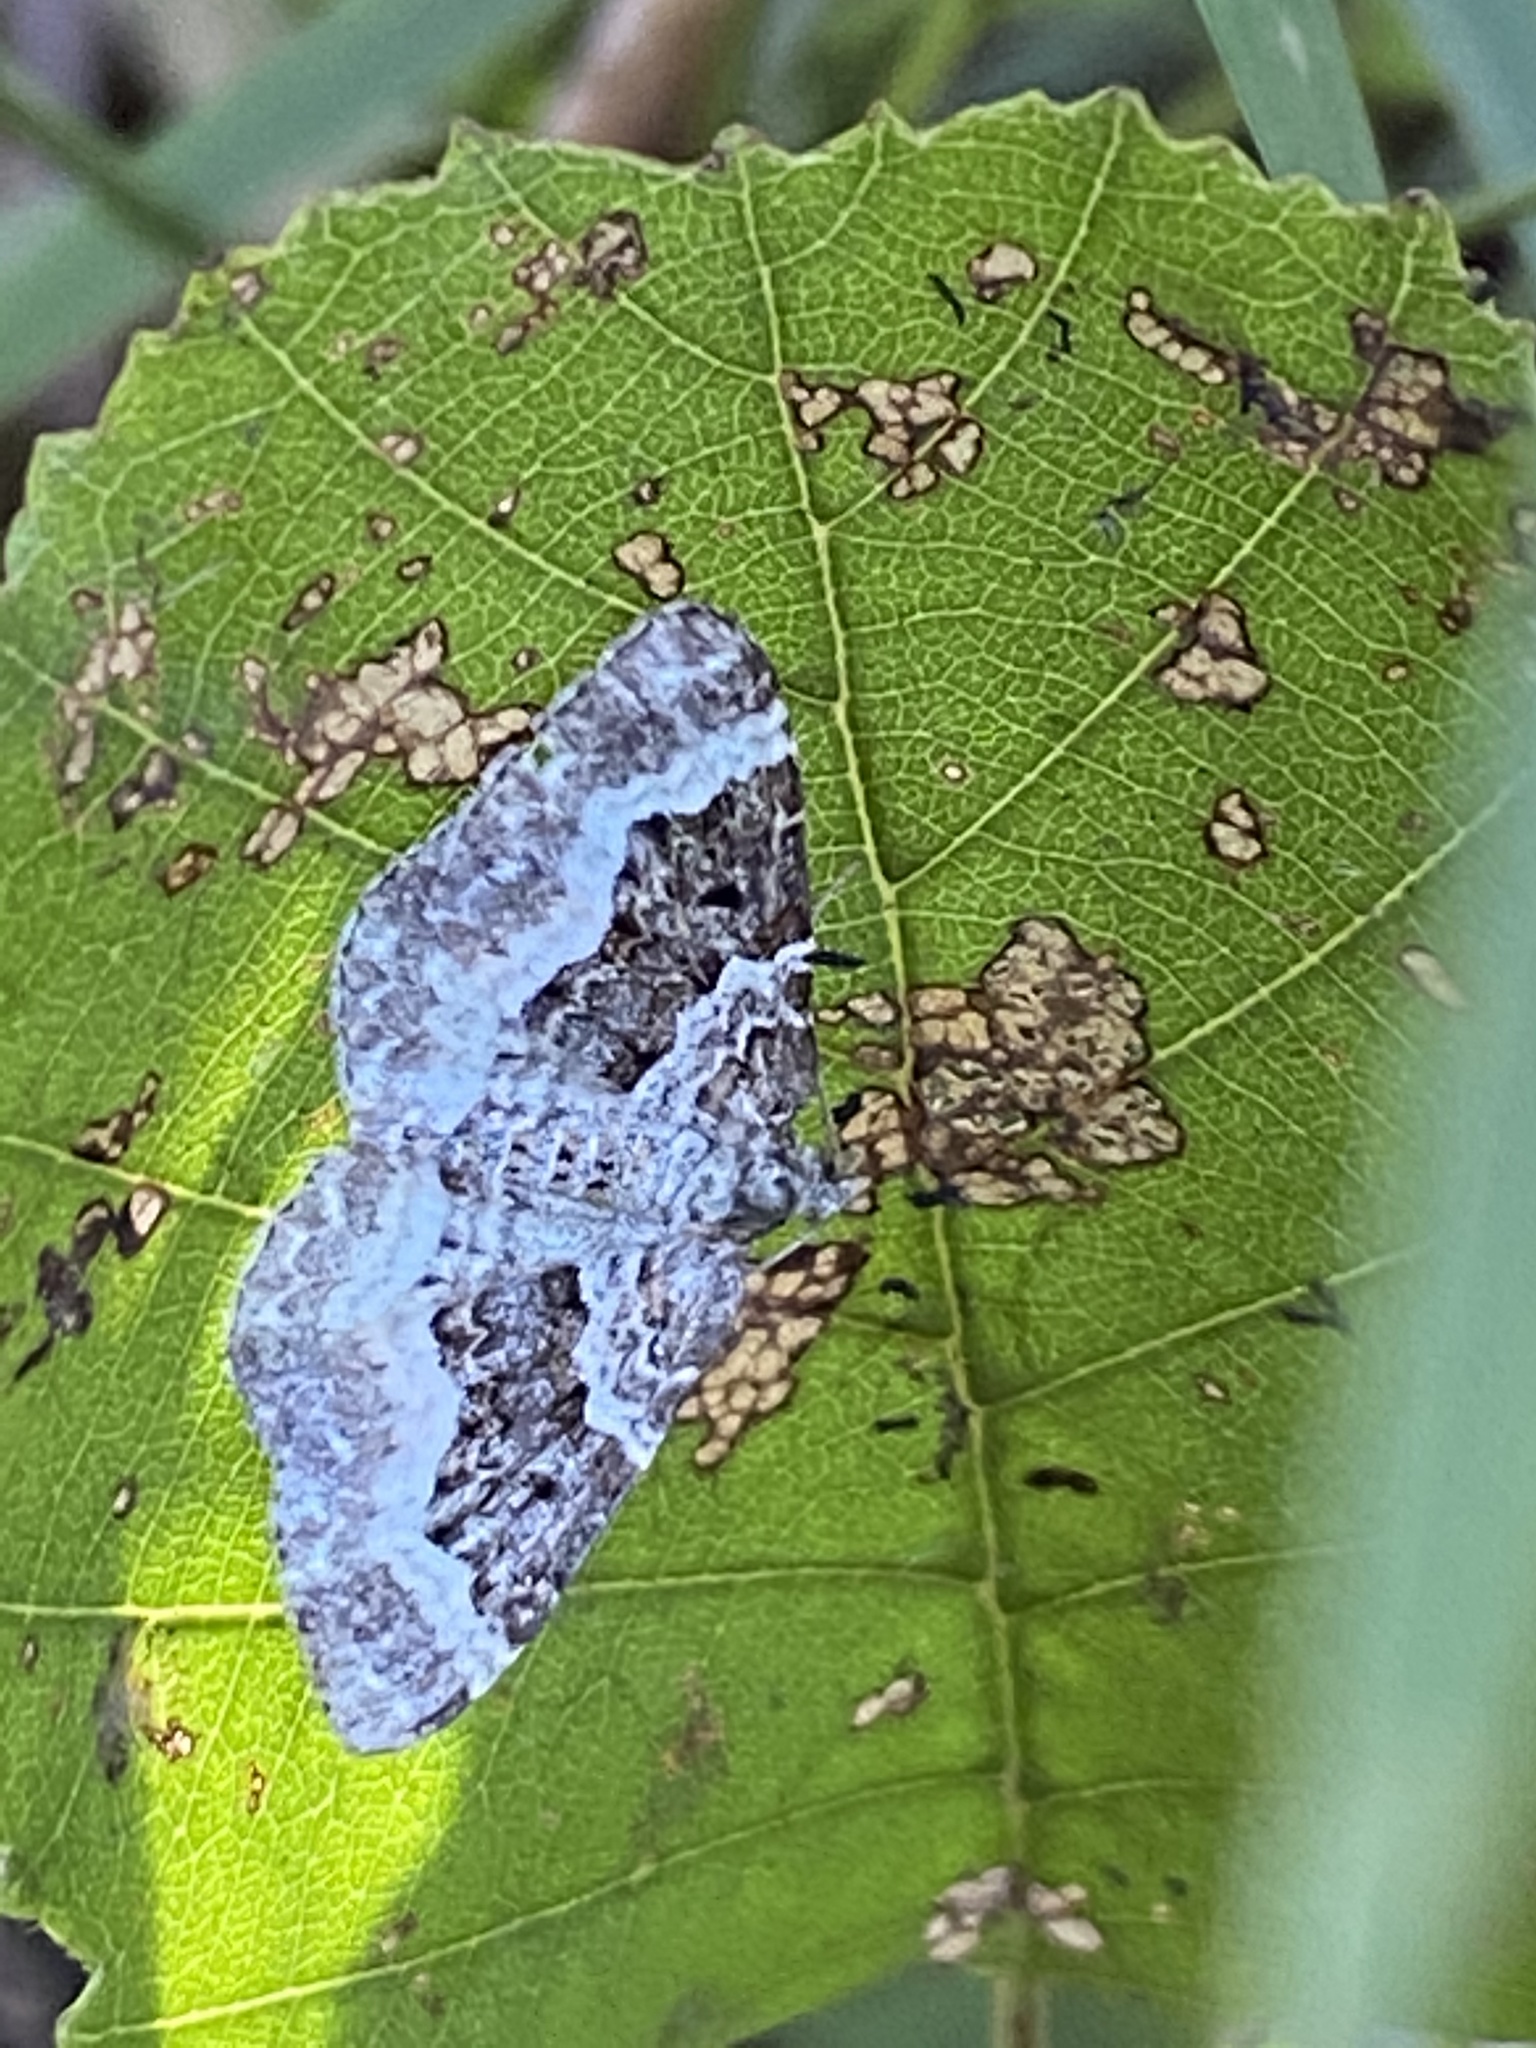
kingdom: Animalia
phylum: Arthropoda
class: Insecta
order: Lepidoptera
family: Geometridae
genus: Epirrhoe
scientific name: Epirrhoe alternata
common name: Common carpet
